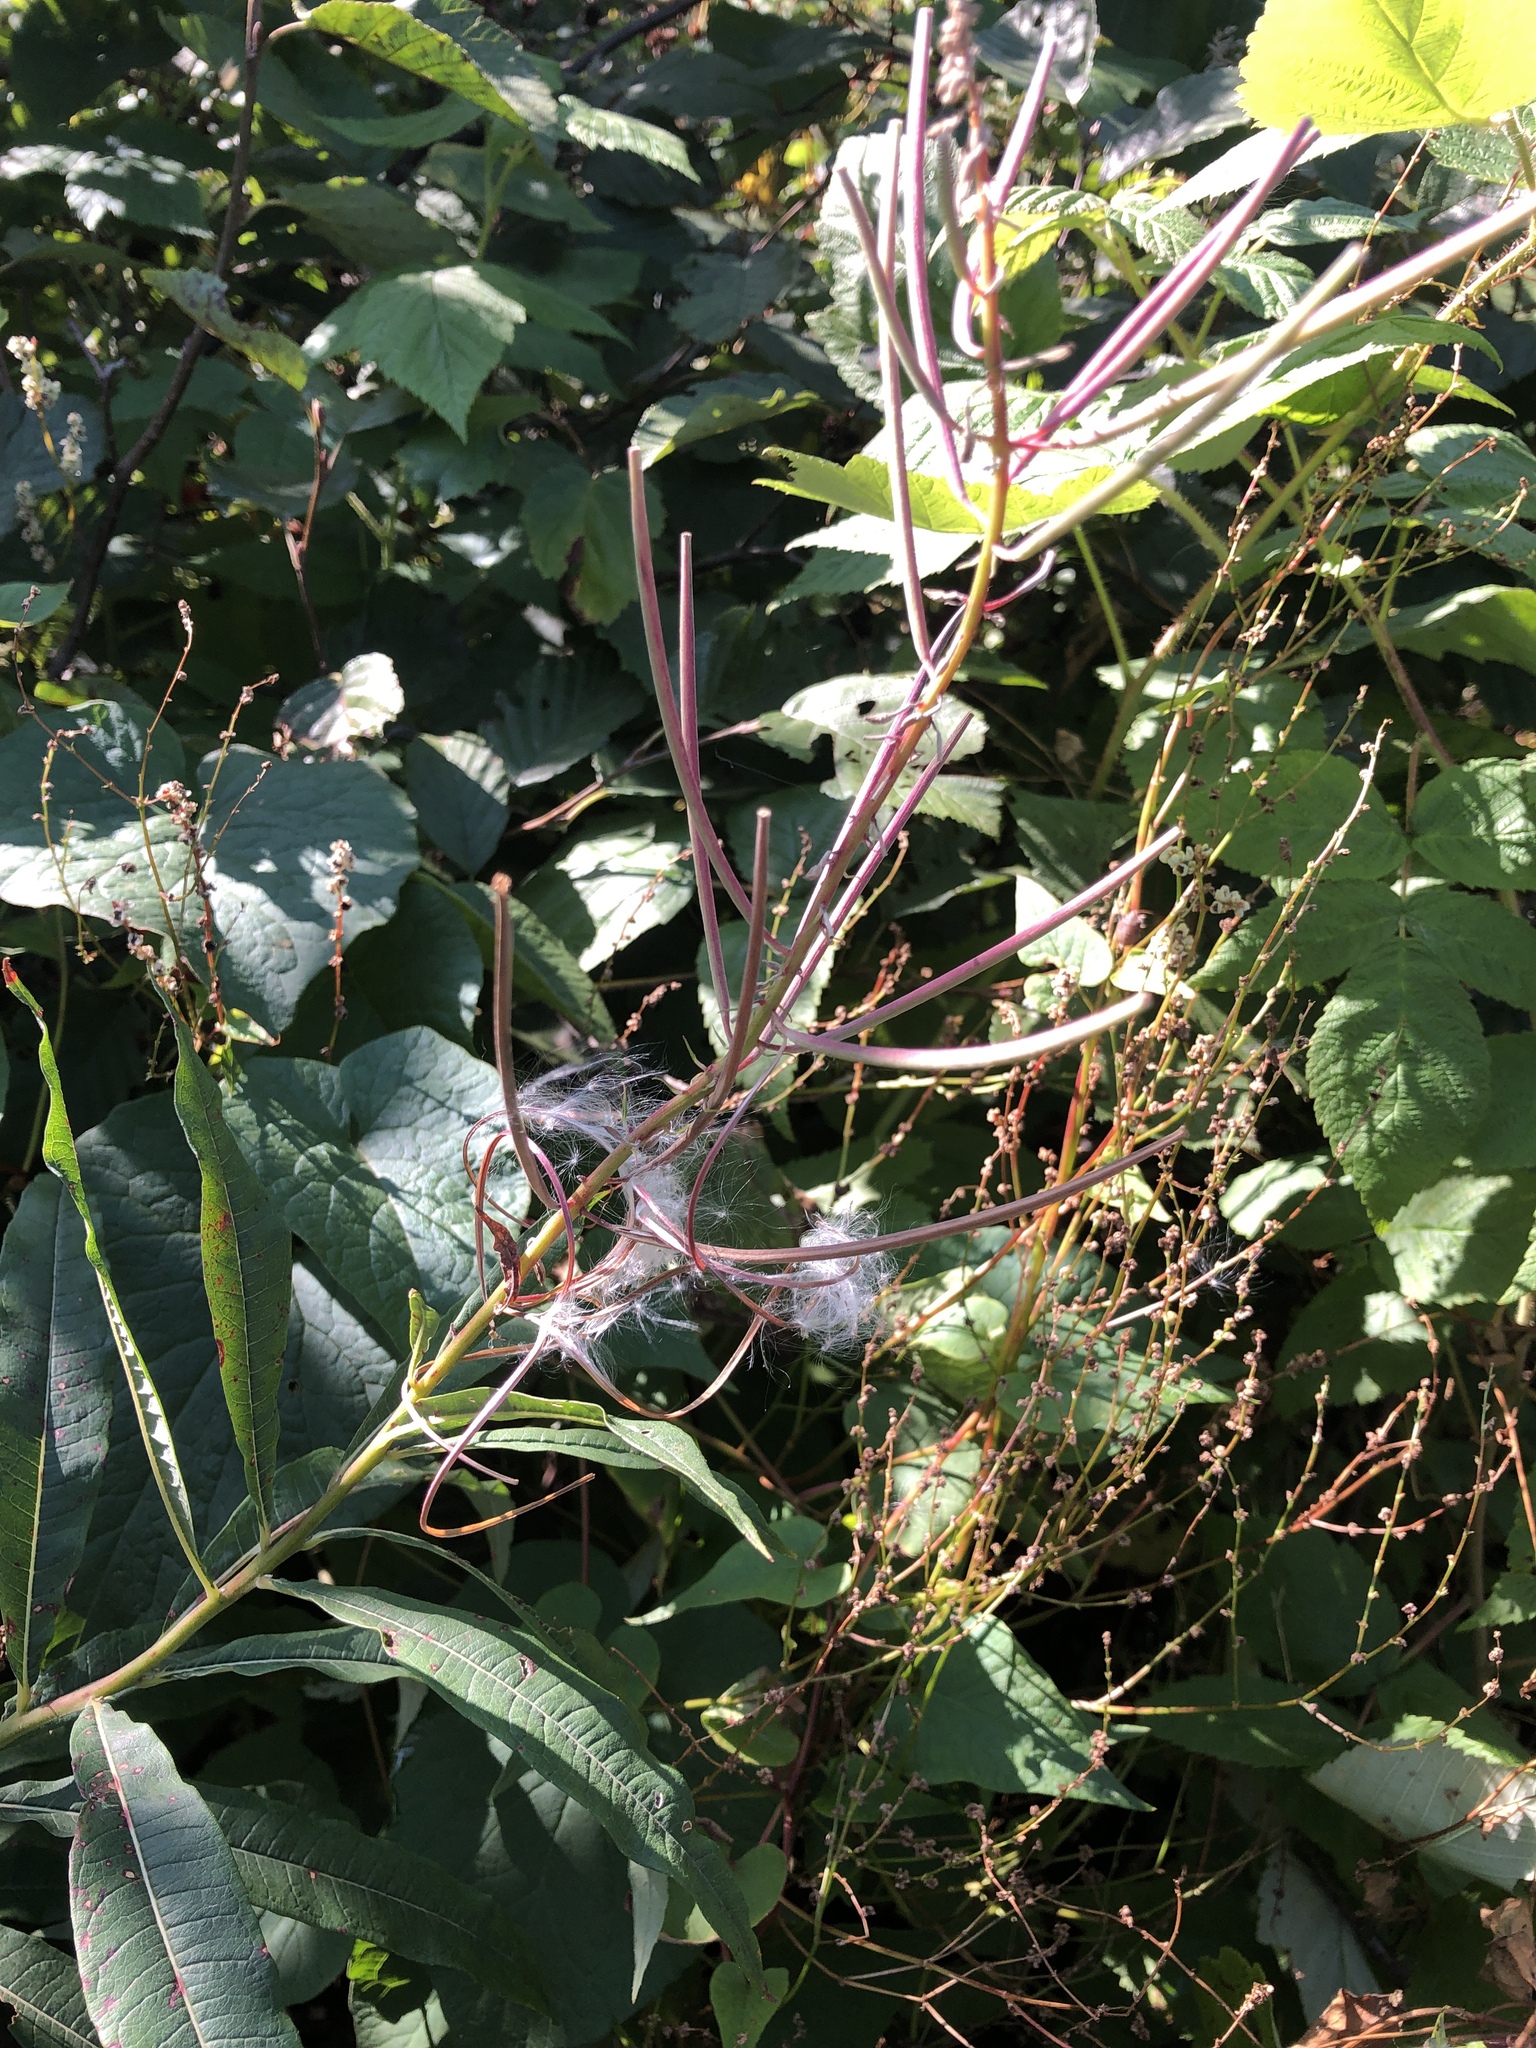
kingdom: Plantae
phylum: Tracheophyta
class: Magnoliopsida
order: Myrtales
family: Onagraceae
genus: Chamaenerion
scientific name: Chamaenerion angustifolium
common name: Fireweed
